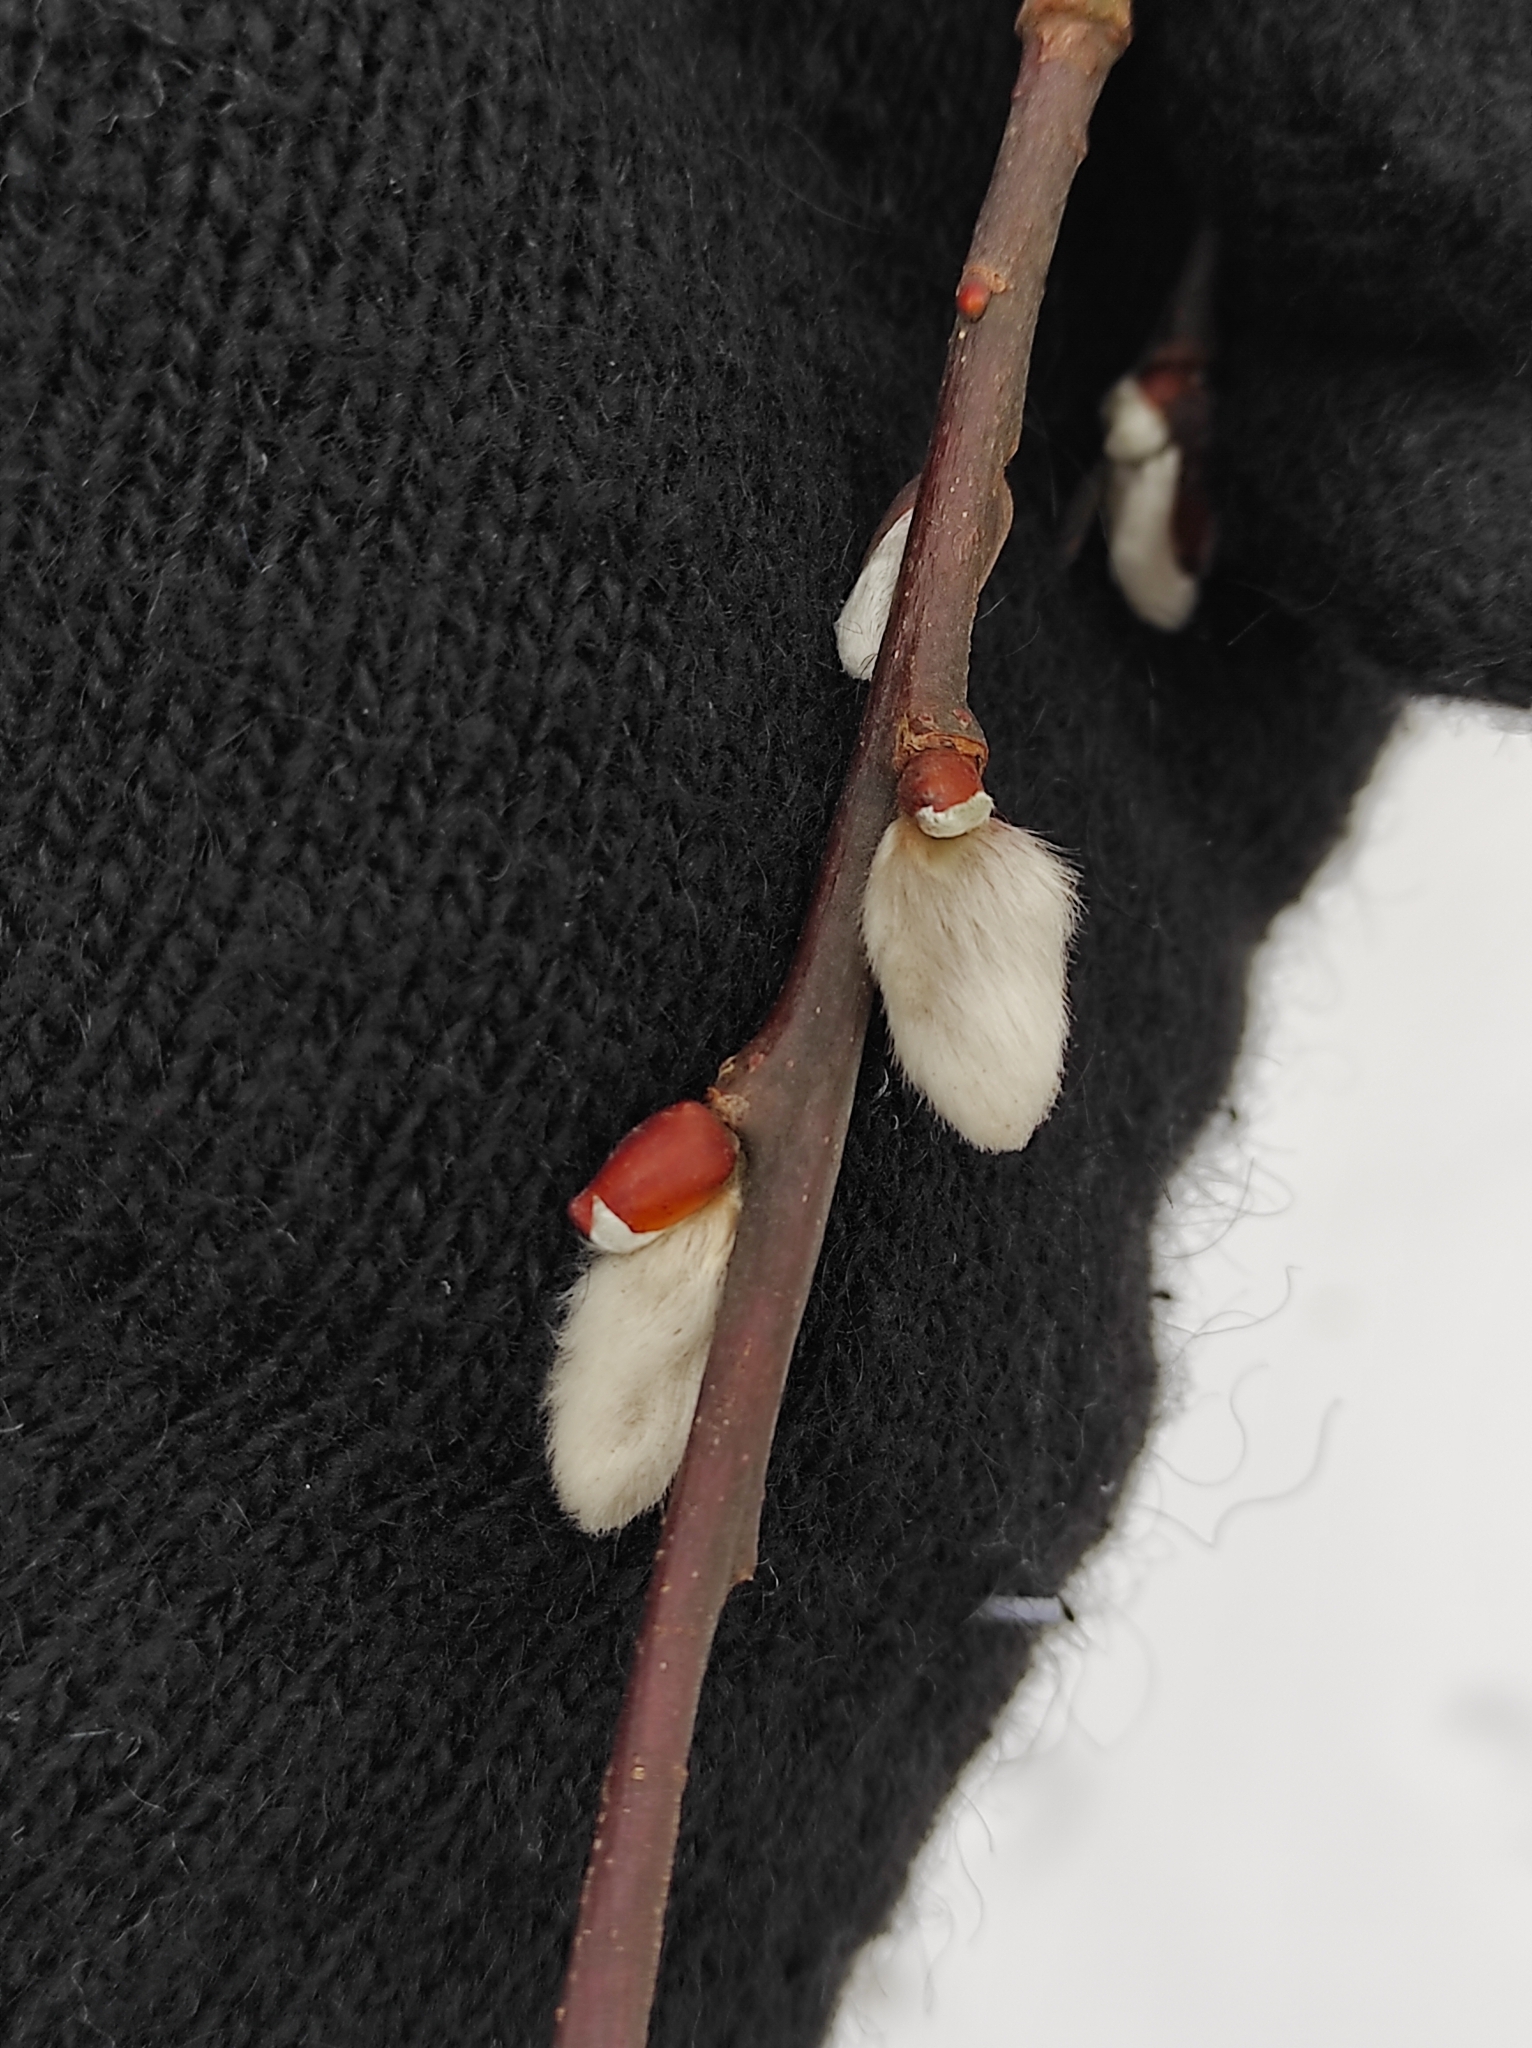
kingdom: Plantae
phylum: Tracheophyta
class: Magnoliopsida
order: Malpighiales
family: Salicaceae
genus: Salix
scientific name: Salix caprea
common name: Goat willow
